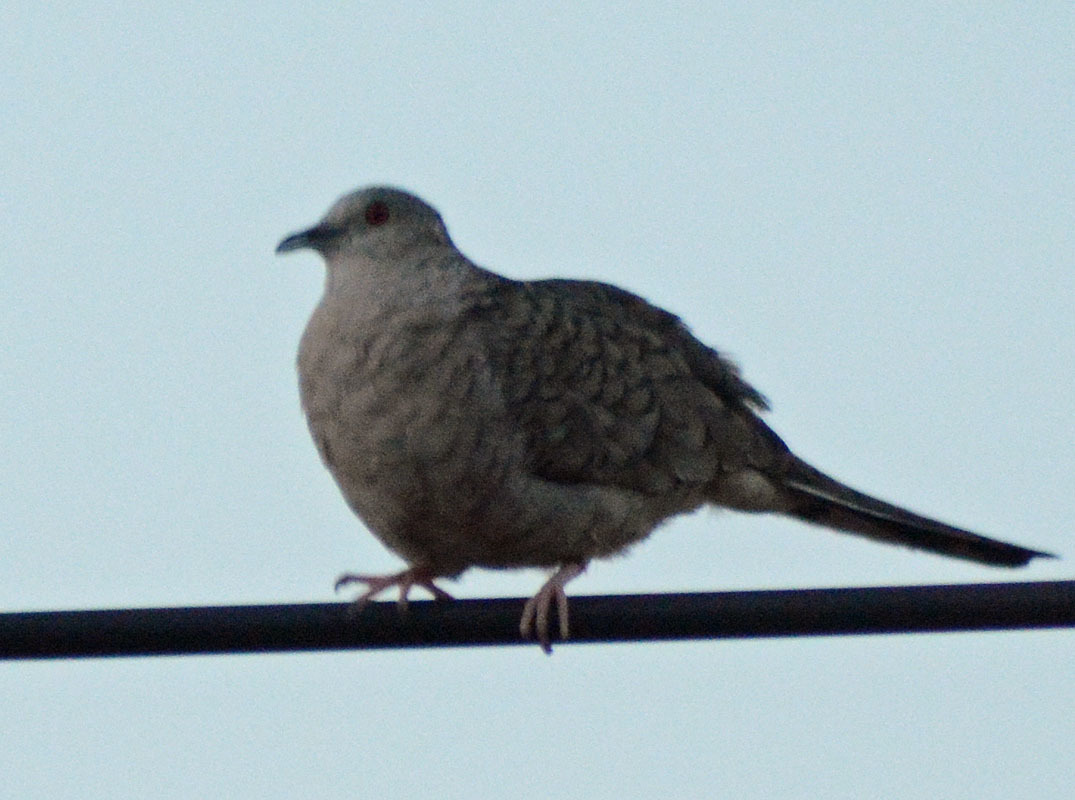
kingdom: Animalia
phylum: Chordata
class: Aves
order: Columbiformes
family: Columbidae
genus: Columbina
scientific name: Columbina inca
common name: Inca dove
